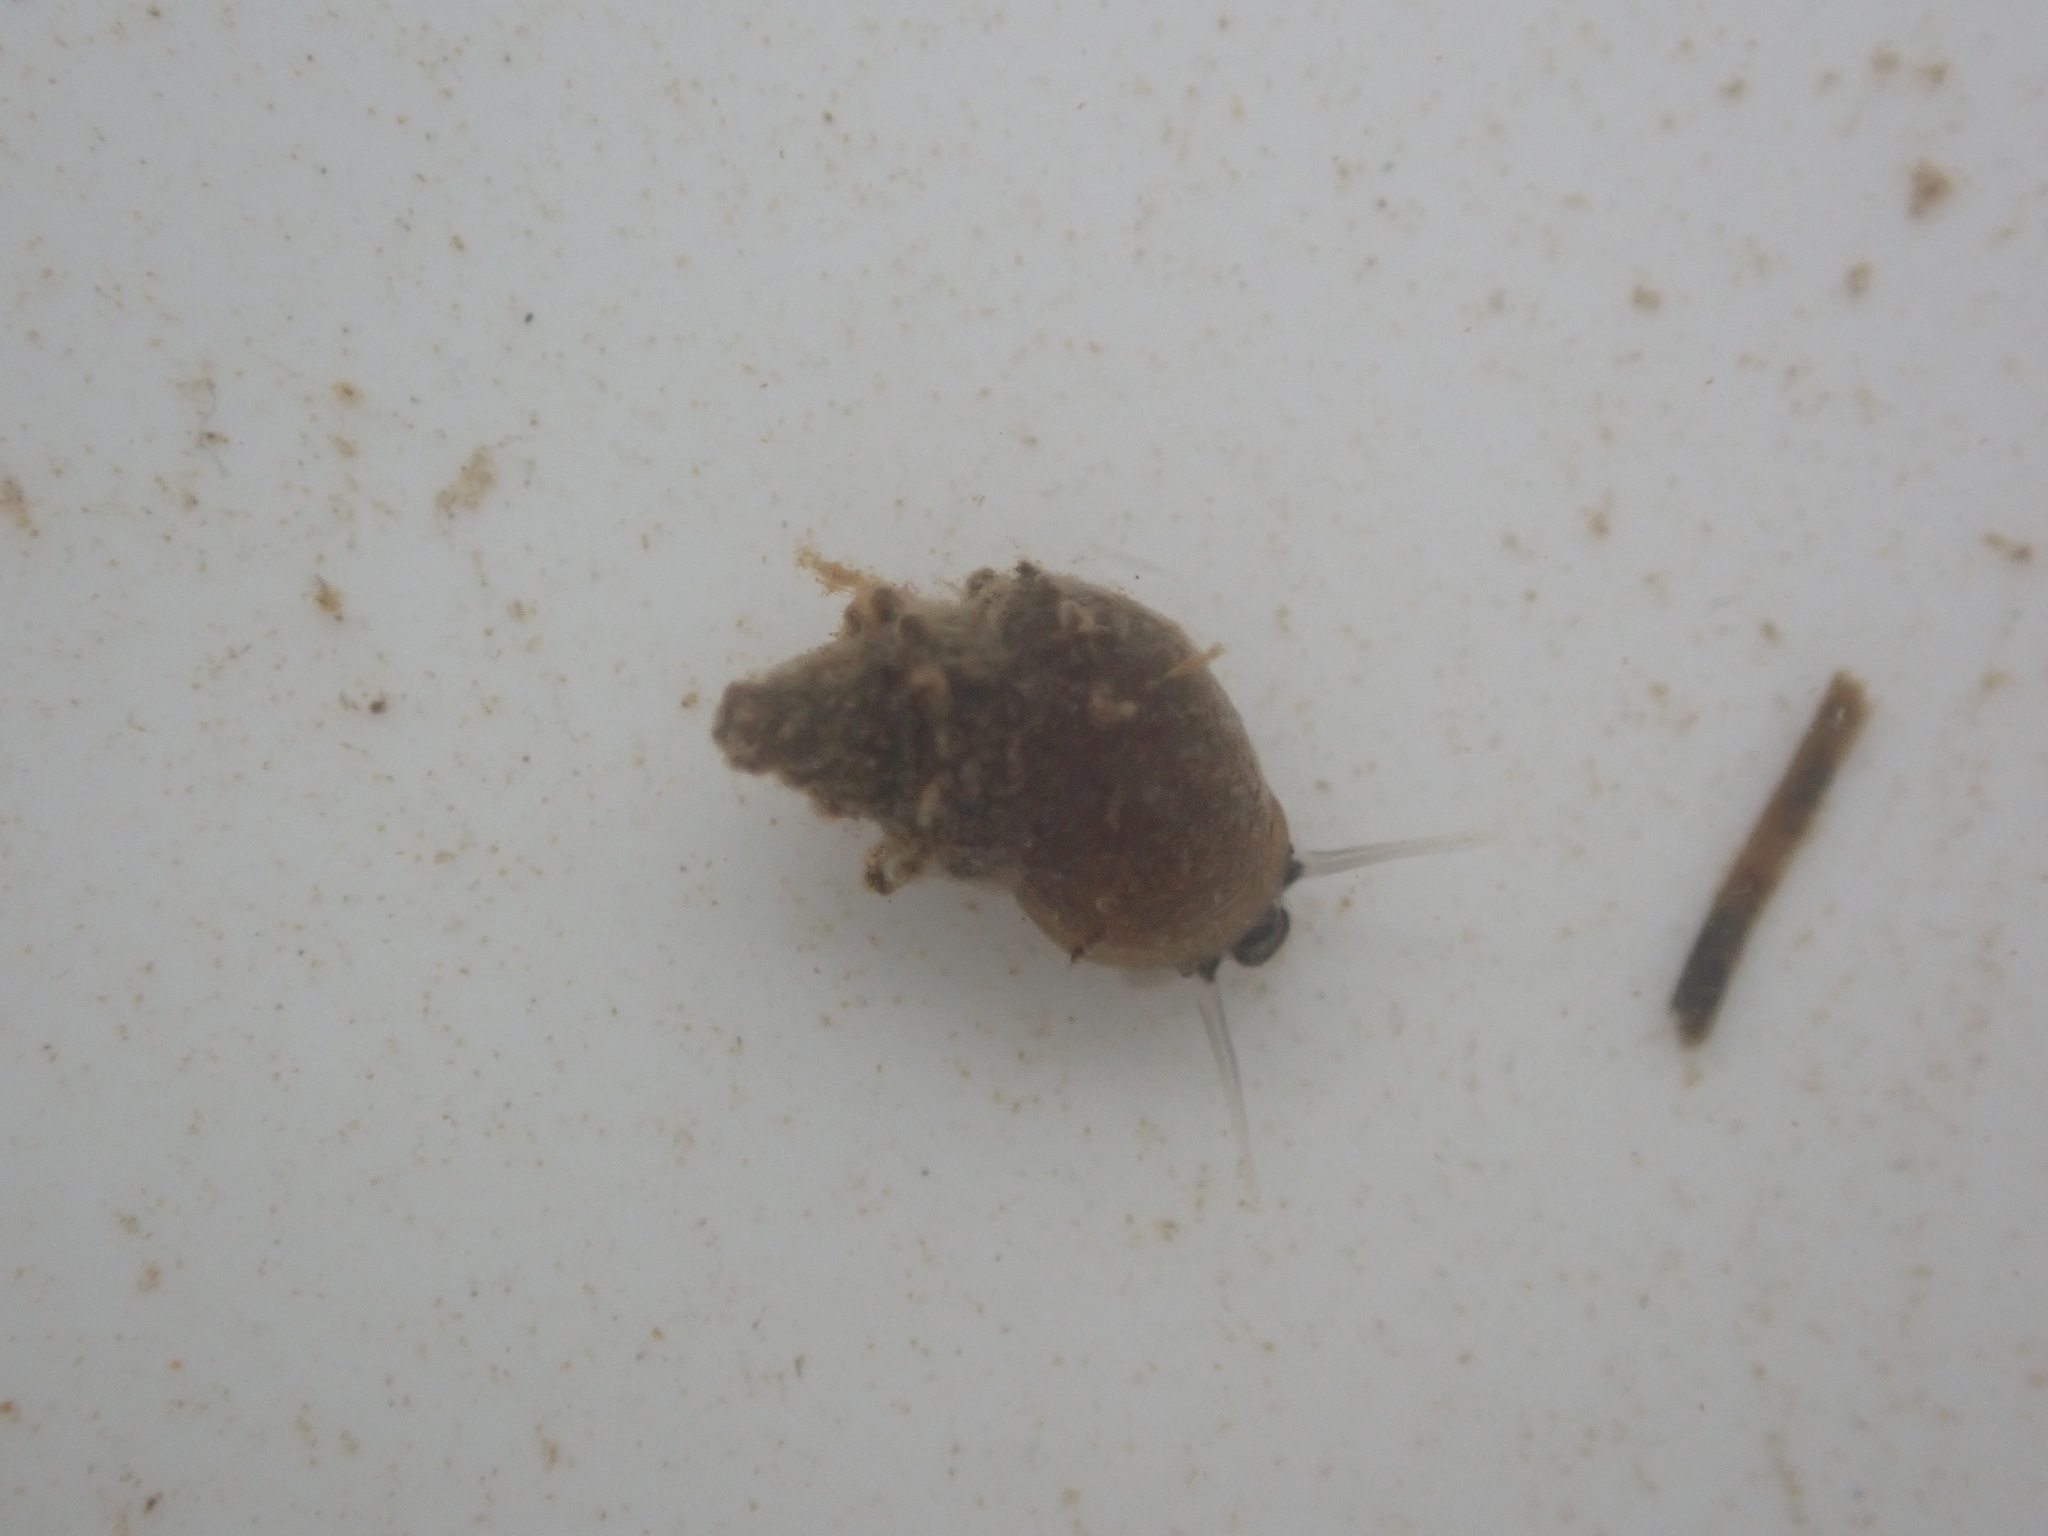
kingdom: Animalia
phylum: Mollusca
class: Gastropoda
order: Littorinimorpha
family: Tateidae
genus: Potamopyrgus
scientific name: Potamopyrgus antipodarum
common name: Jenkins' spire snail
